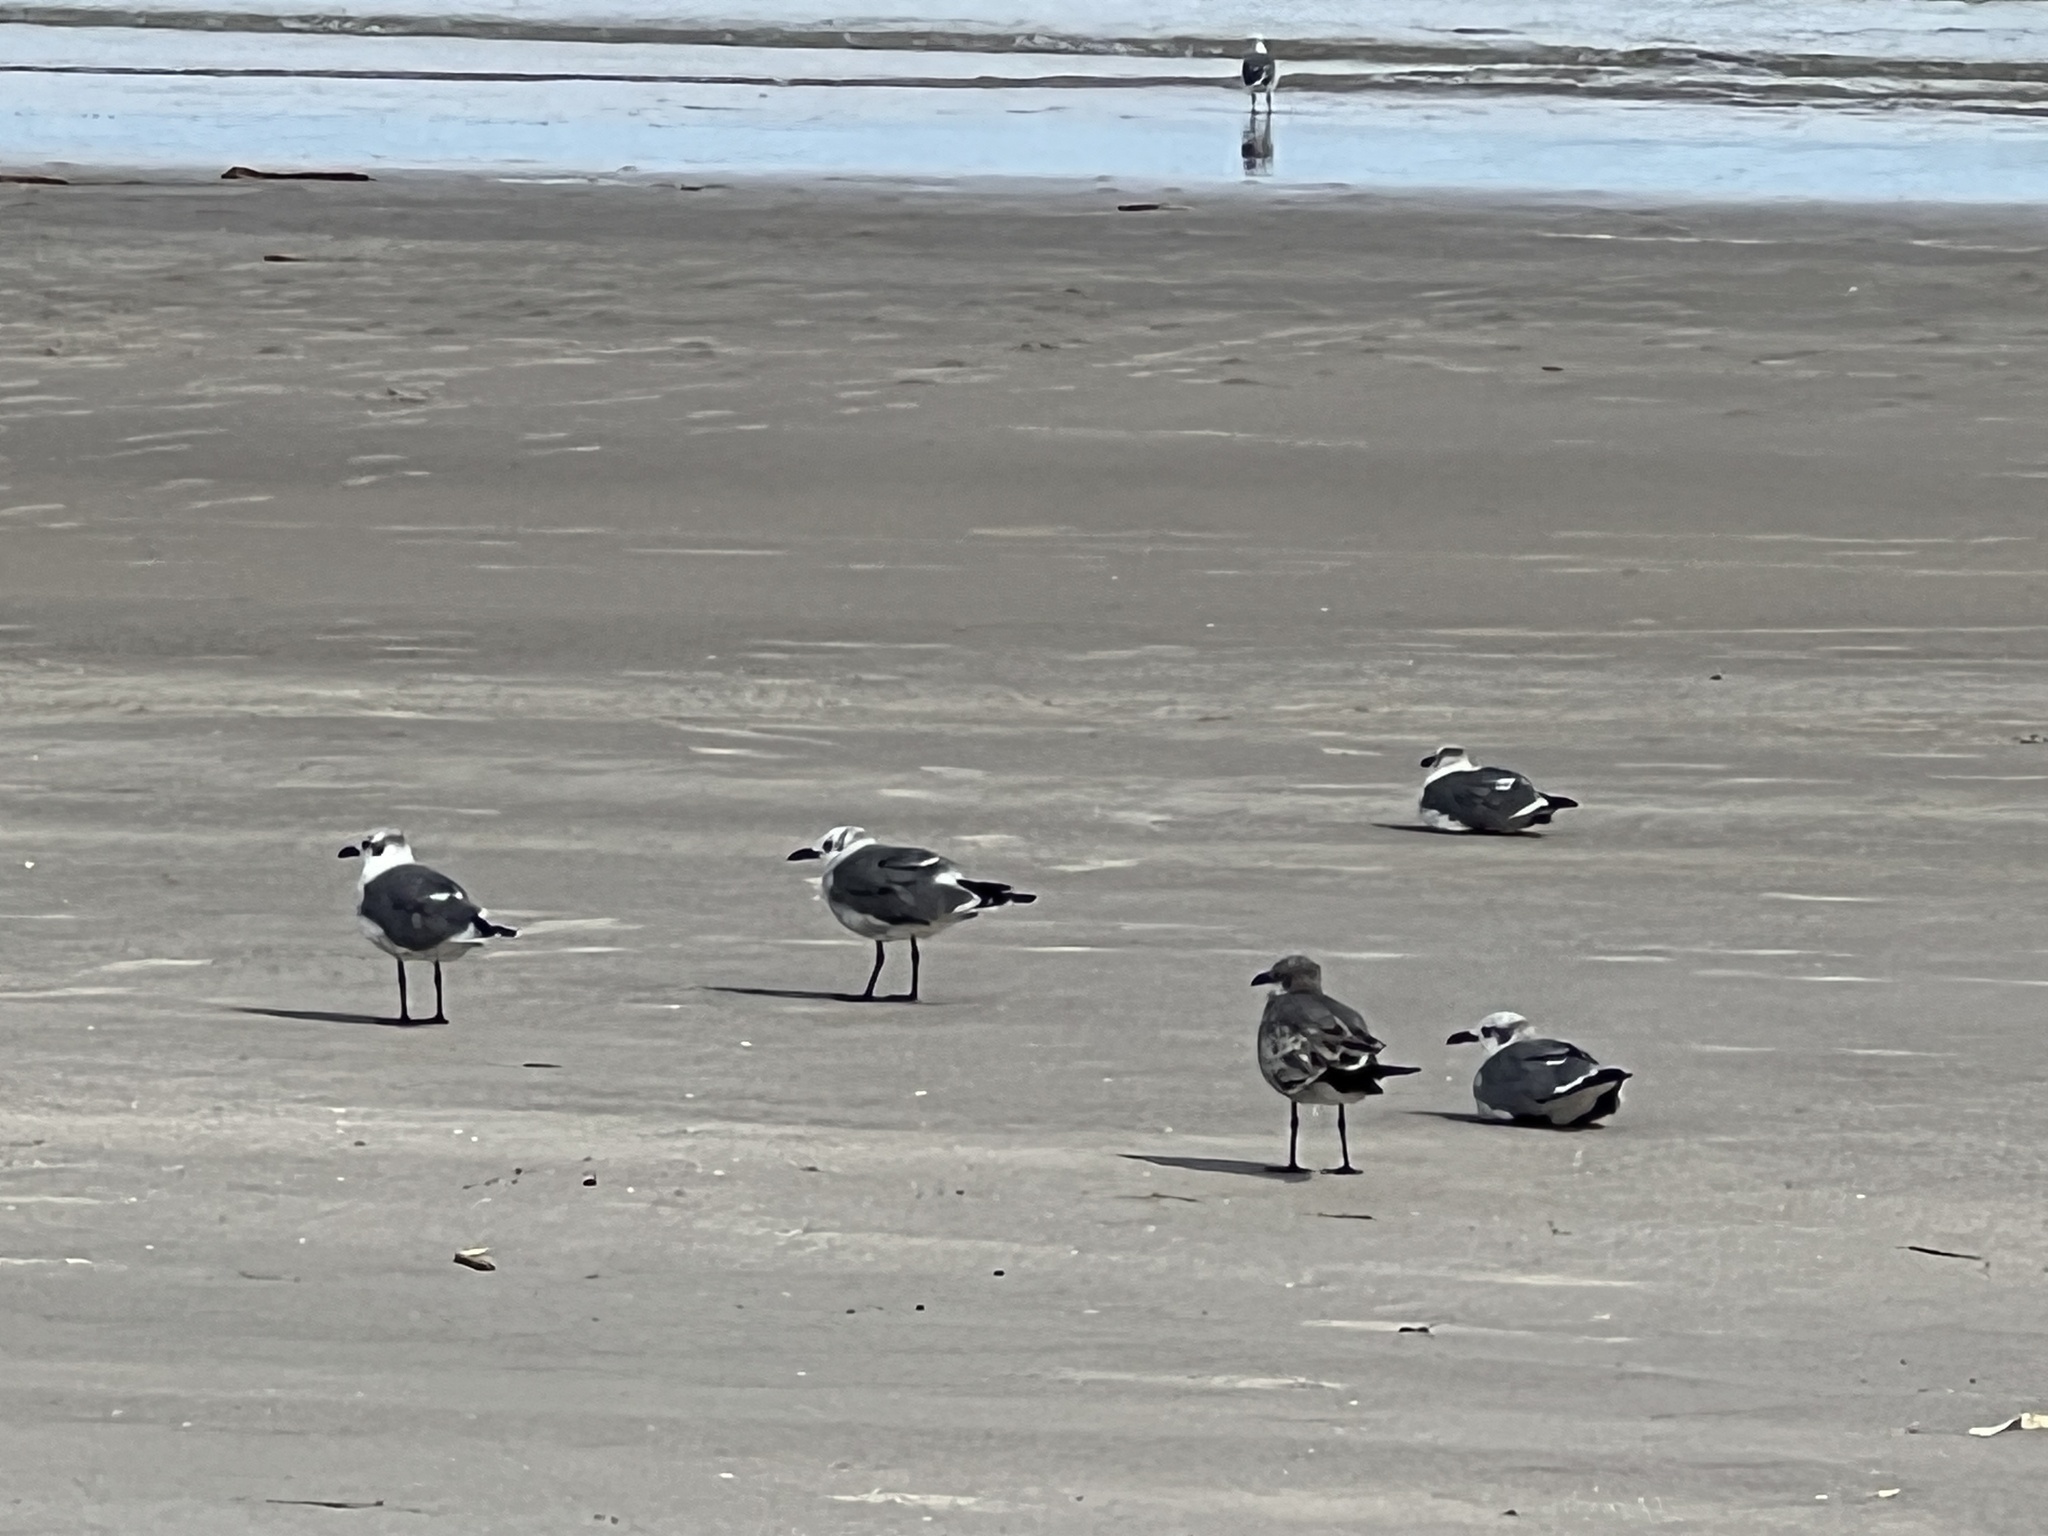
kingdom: Animalia
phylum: Chordata
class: Aves
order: Charadriiformes
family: Laridae
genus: Leucophaeus
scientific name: Leucophaeus atricilla
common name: Laughing gull
